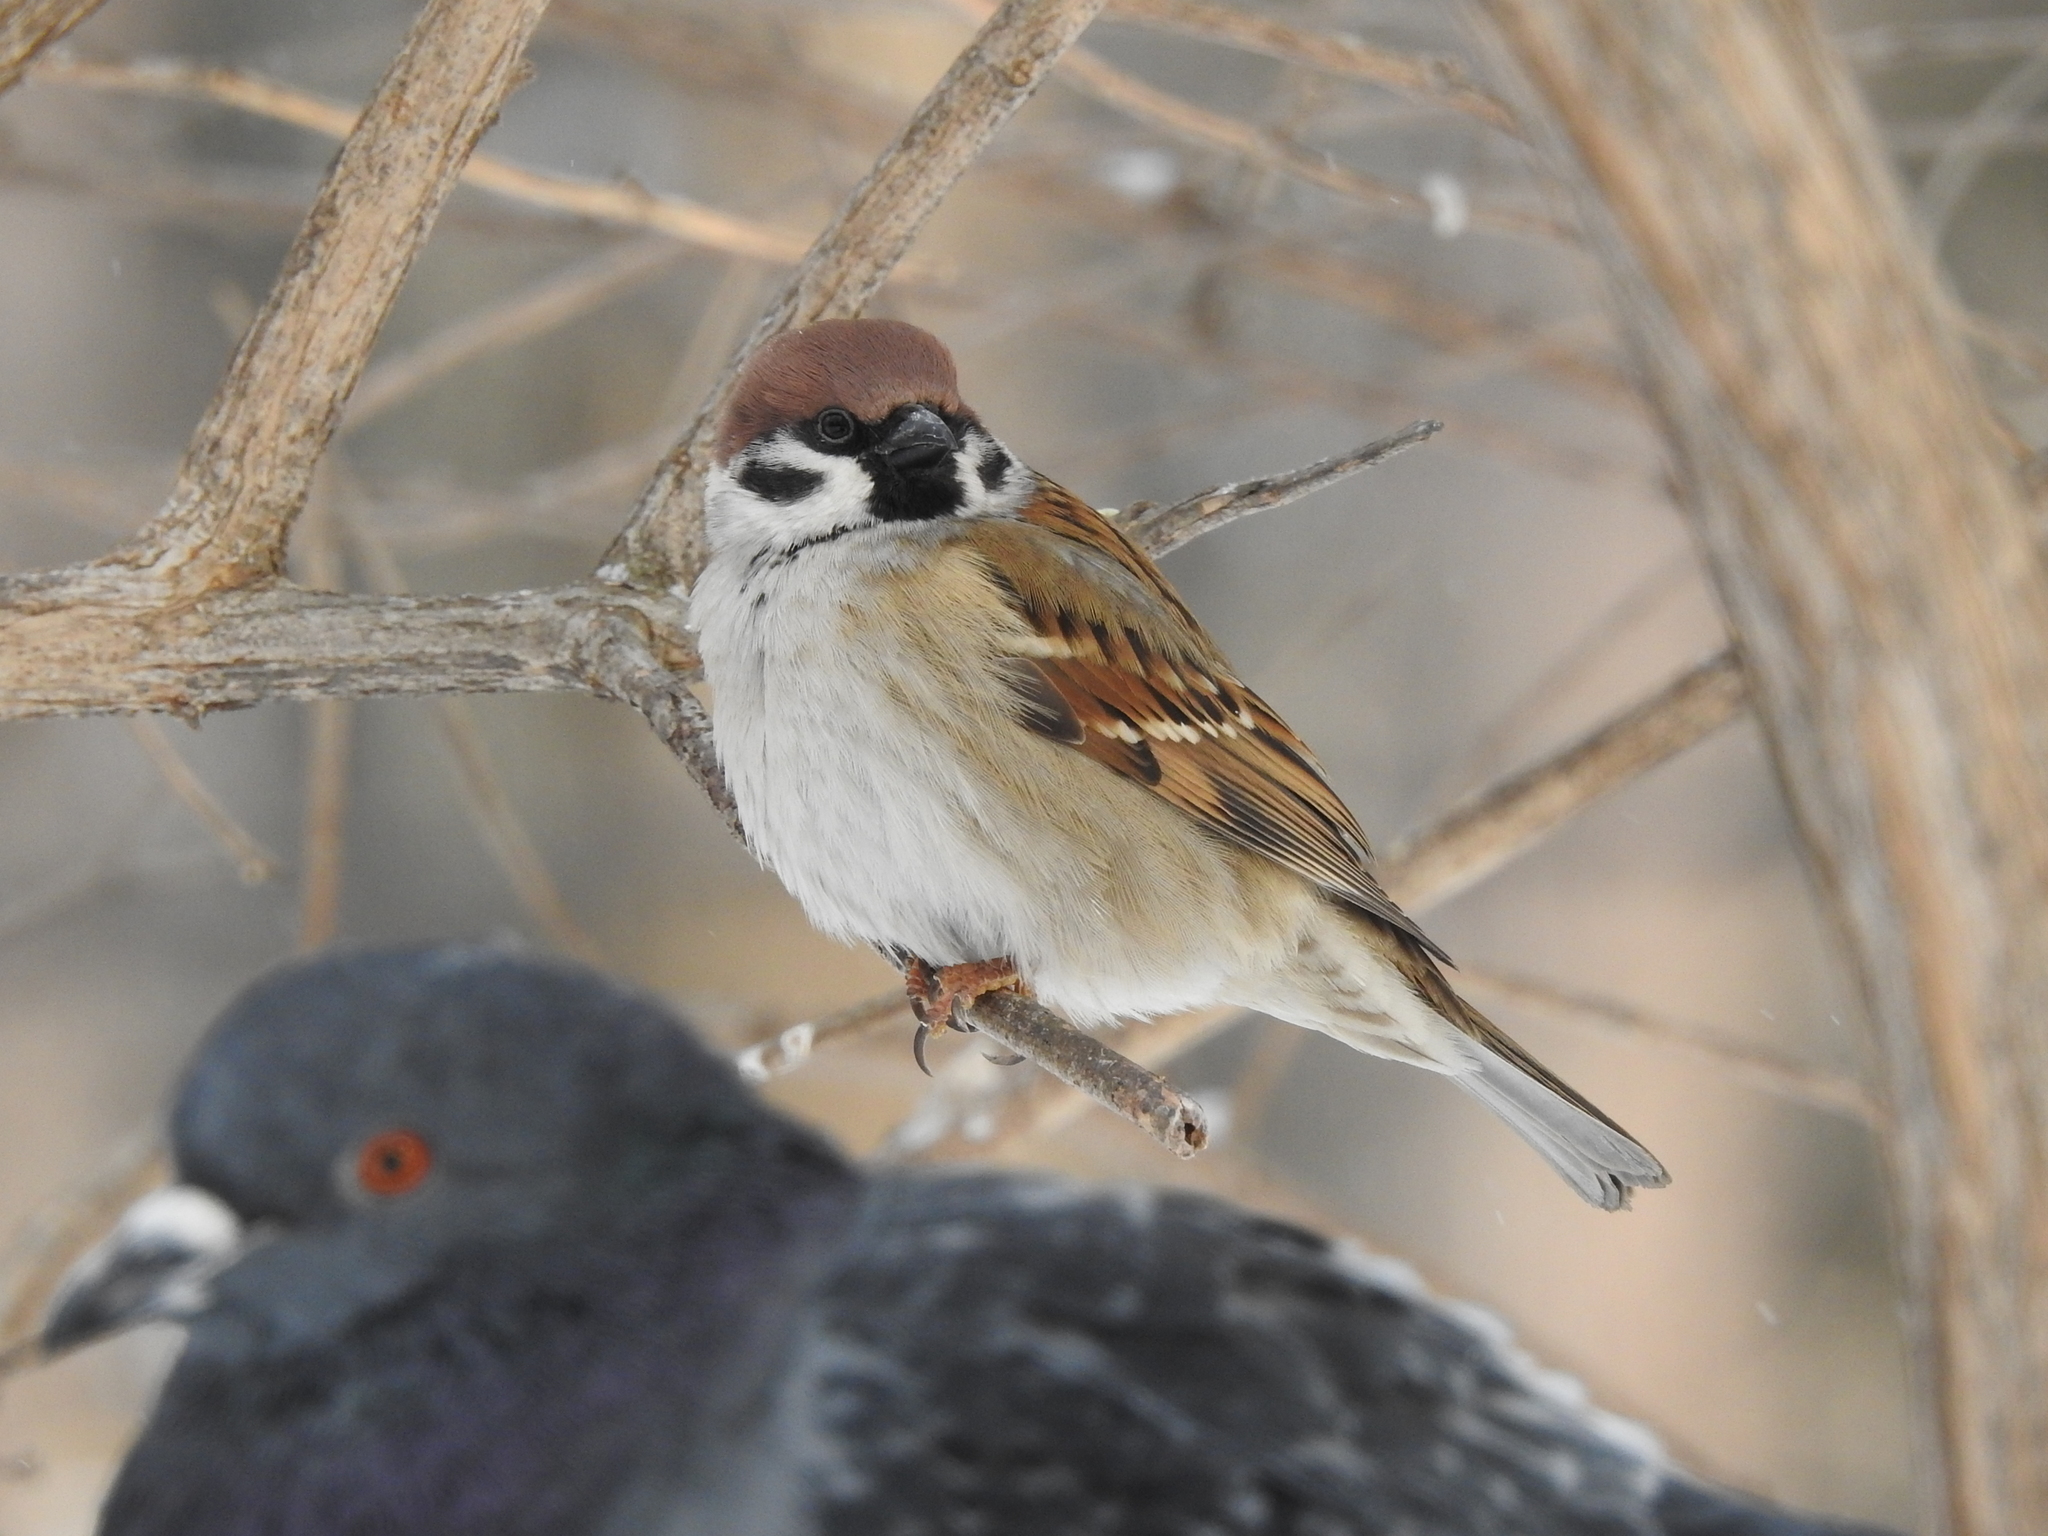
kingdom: Animalia
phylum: Chordata
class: Aves
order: Passeriformes
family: Passeridae
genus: Passer
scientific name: Passer montanus
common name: Eurasian tree sparrow
